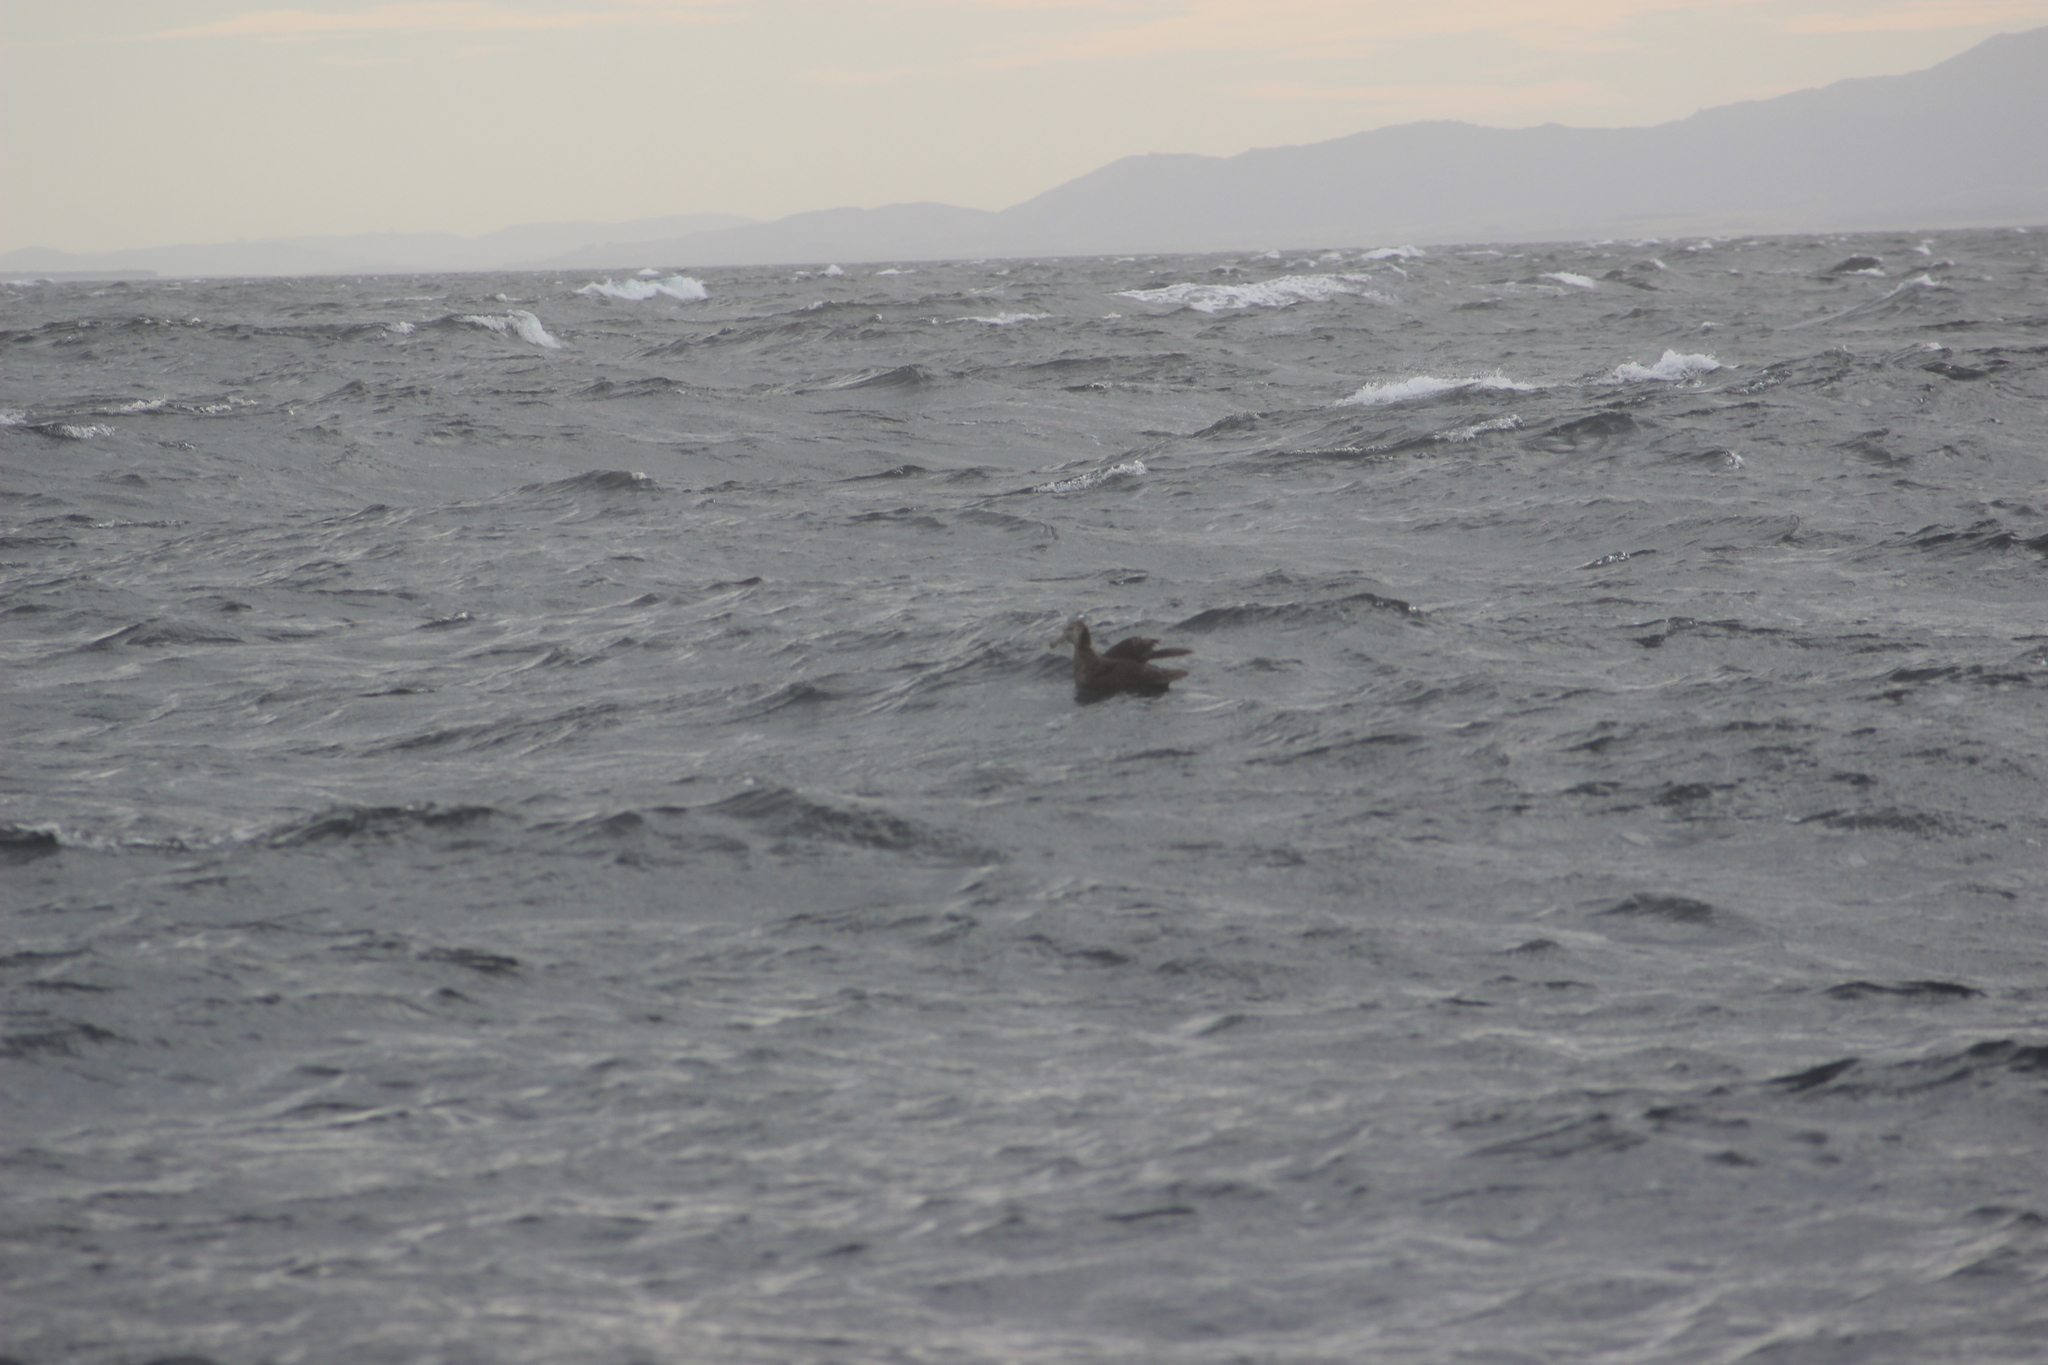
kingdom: Animalia
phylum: Chordata
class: Aves
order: Procellariiformes
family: Procellariidae
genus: Macronectes
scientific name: Macronectes
